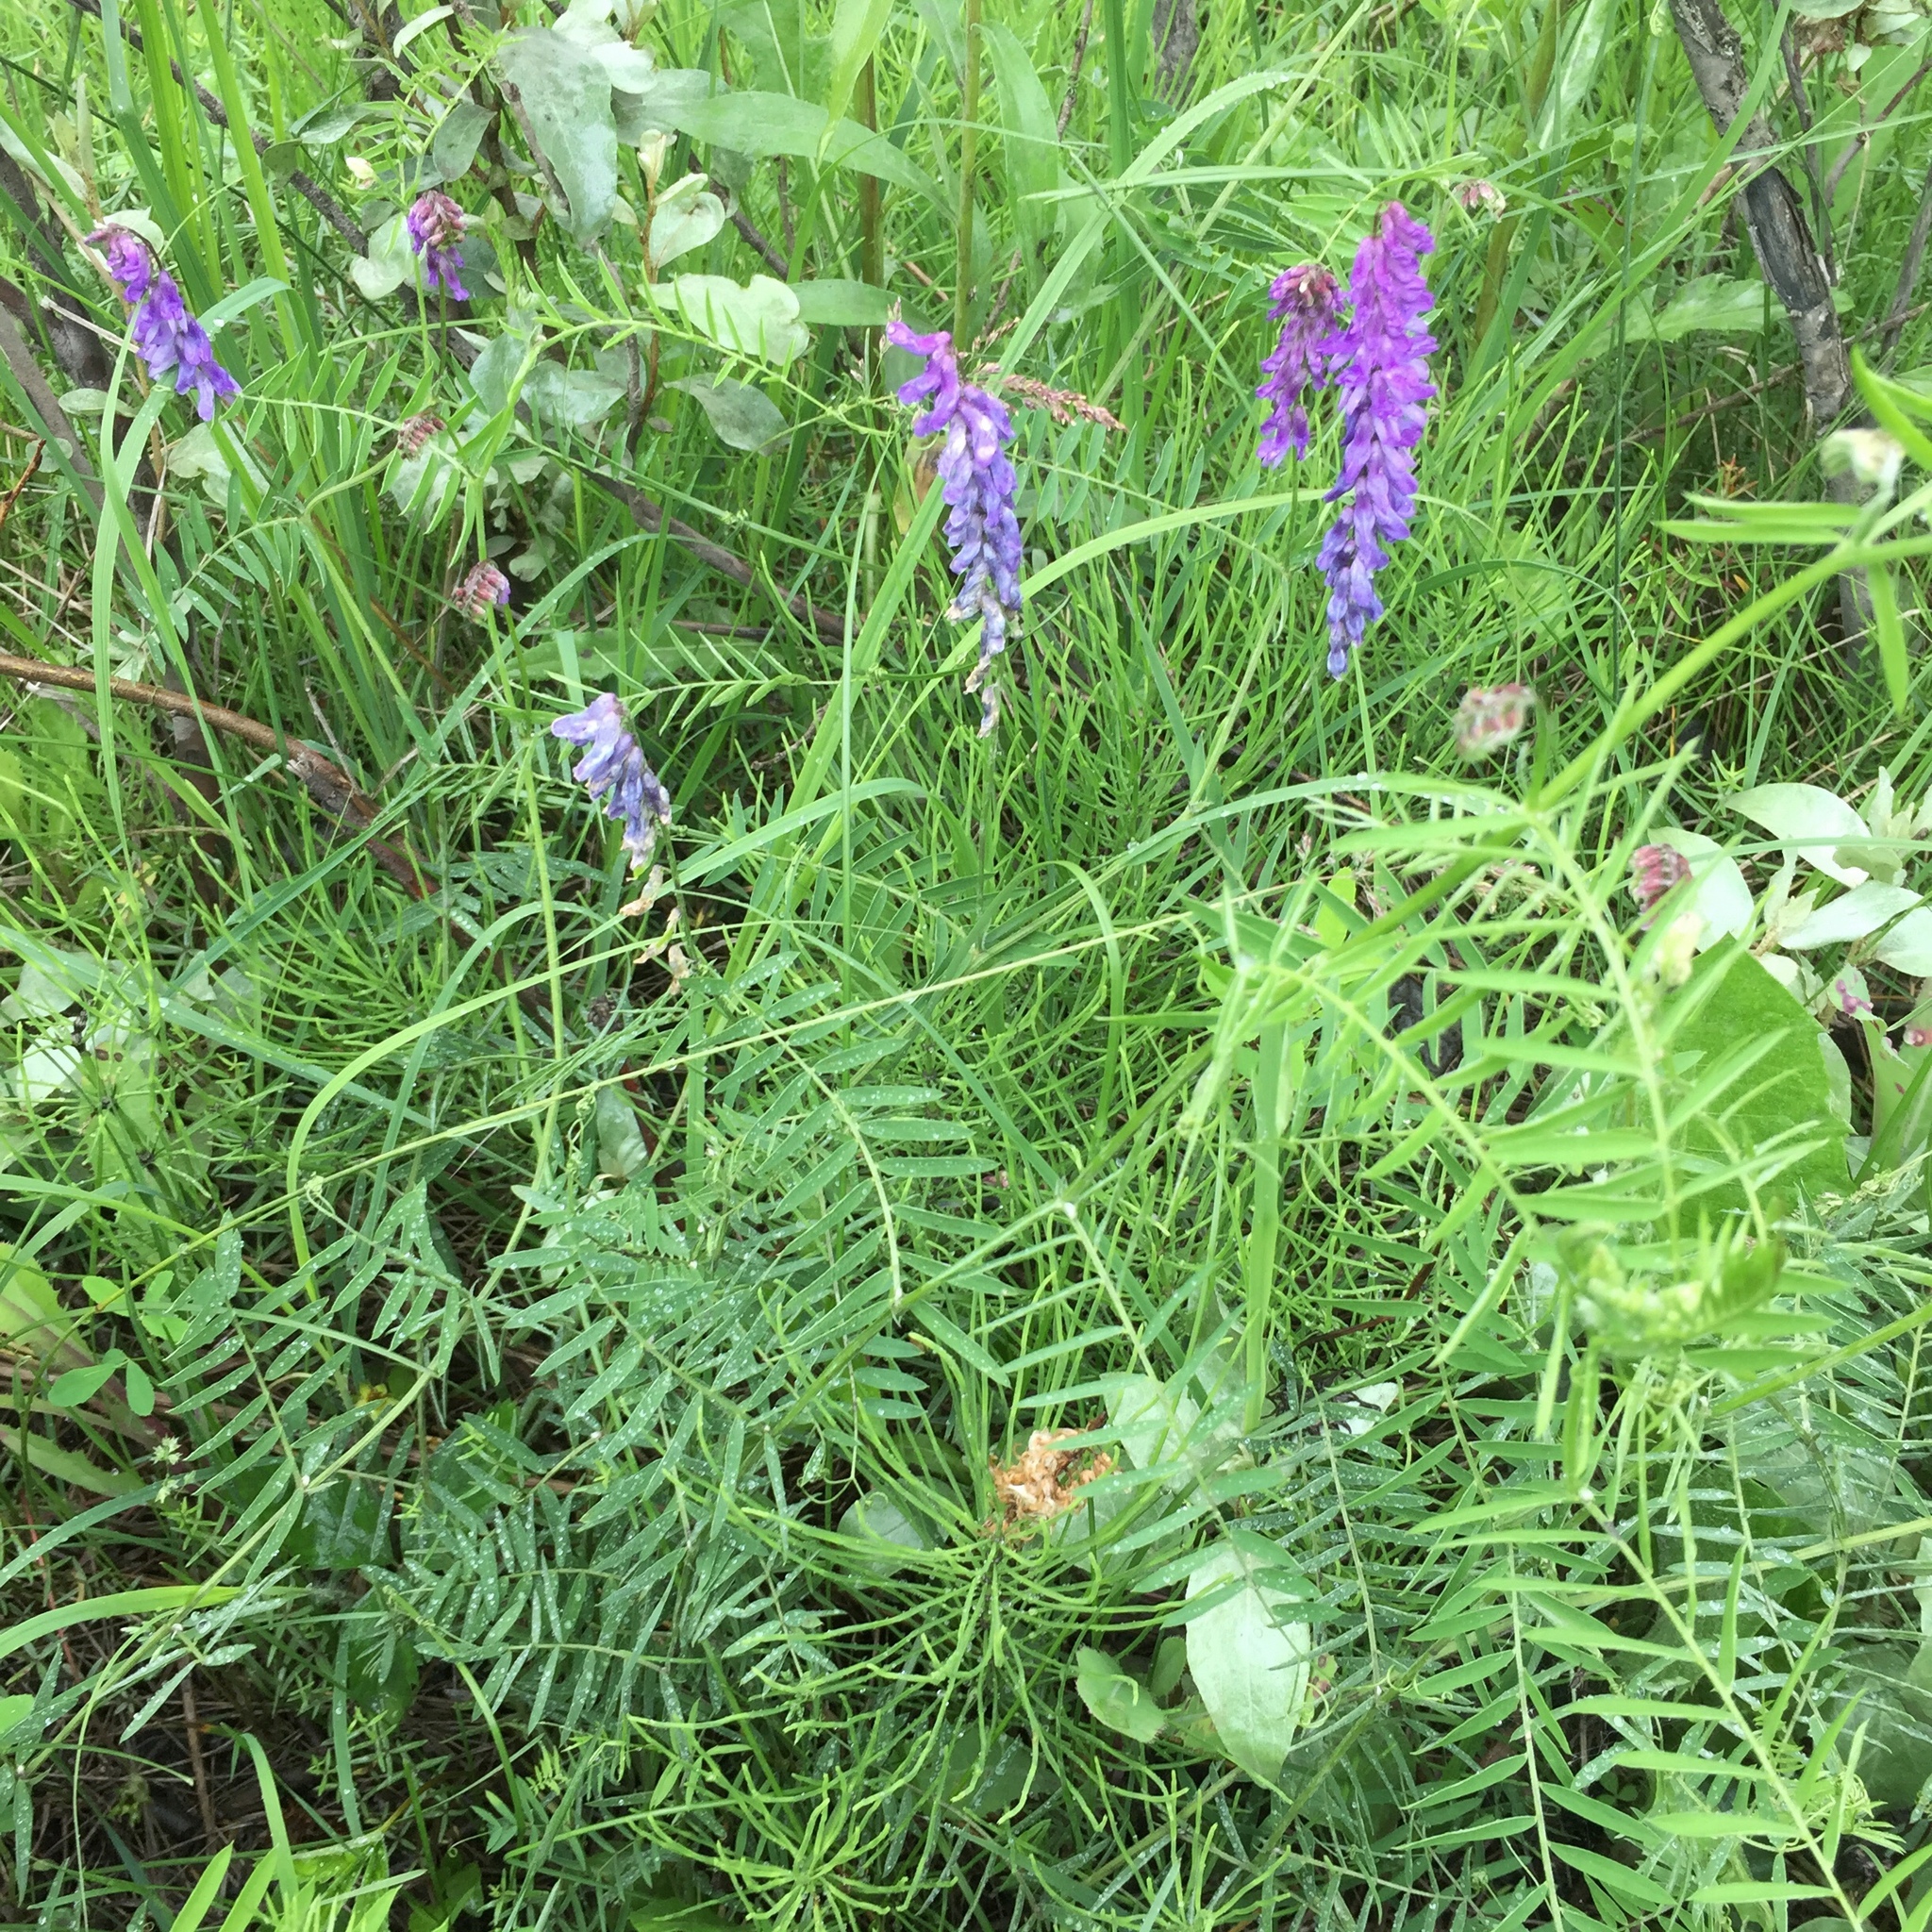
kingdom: Plantae
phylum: Tracheophyta
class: Magnoliopsida
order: Fabales
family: Fabaceae
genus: Vicia
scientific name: Vicia cracca
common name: Bird vetch
